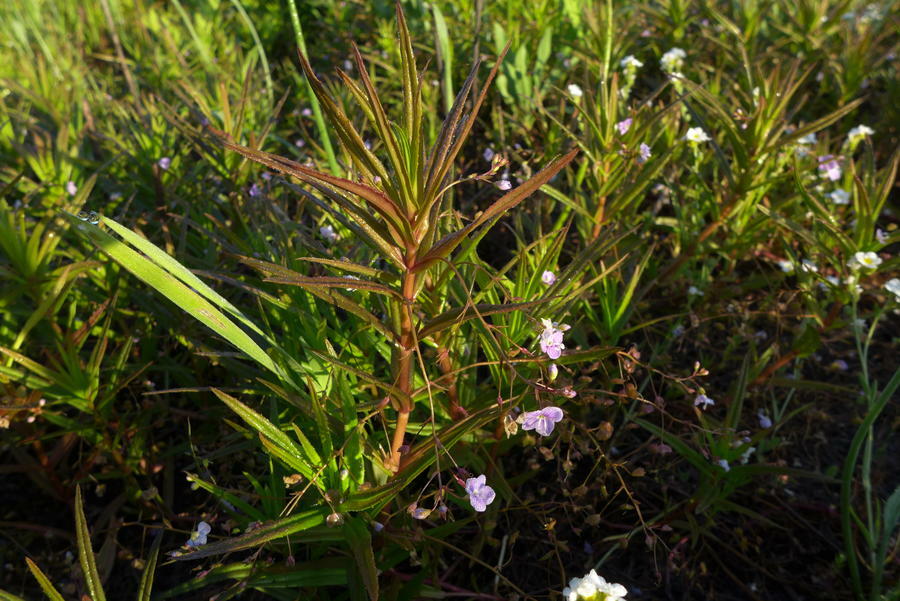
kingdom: Plantae
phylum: Tracheophyta
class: Magnoliopsida
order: Lamiales
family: Plantaginaceae
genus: Veronica
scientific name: Veronica scutellata
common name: Marsh speedwell
